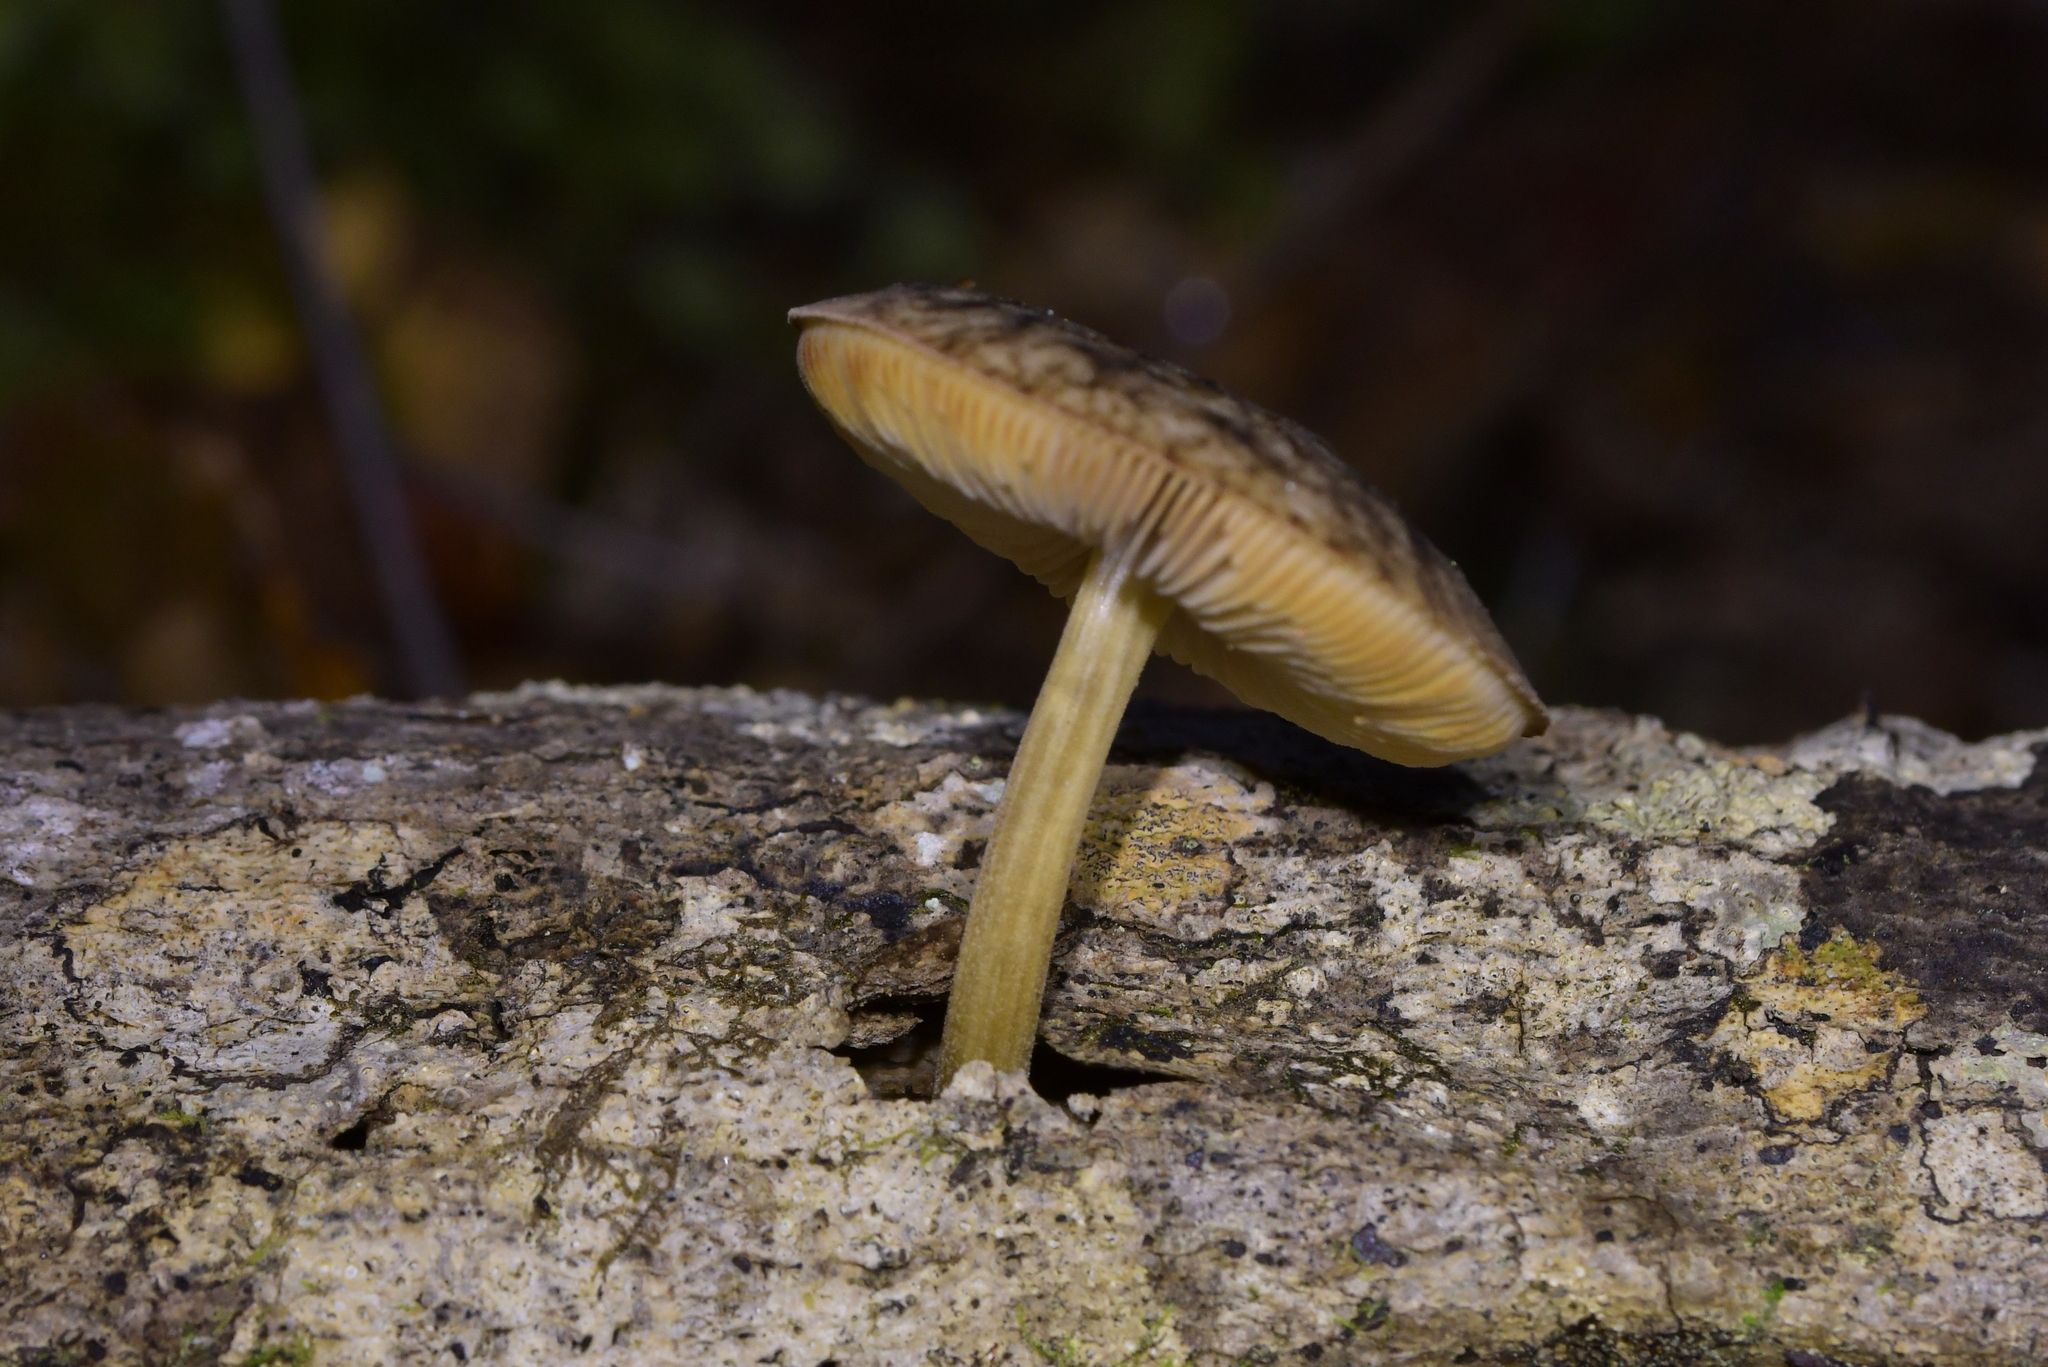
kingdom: Fungi
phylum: Basidiomycota
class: Agaricomycetes
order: Agaricales
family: Pluteaceae
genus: Pluteus
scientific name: Pluteus readiarum
